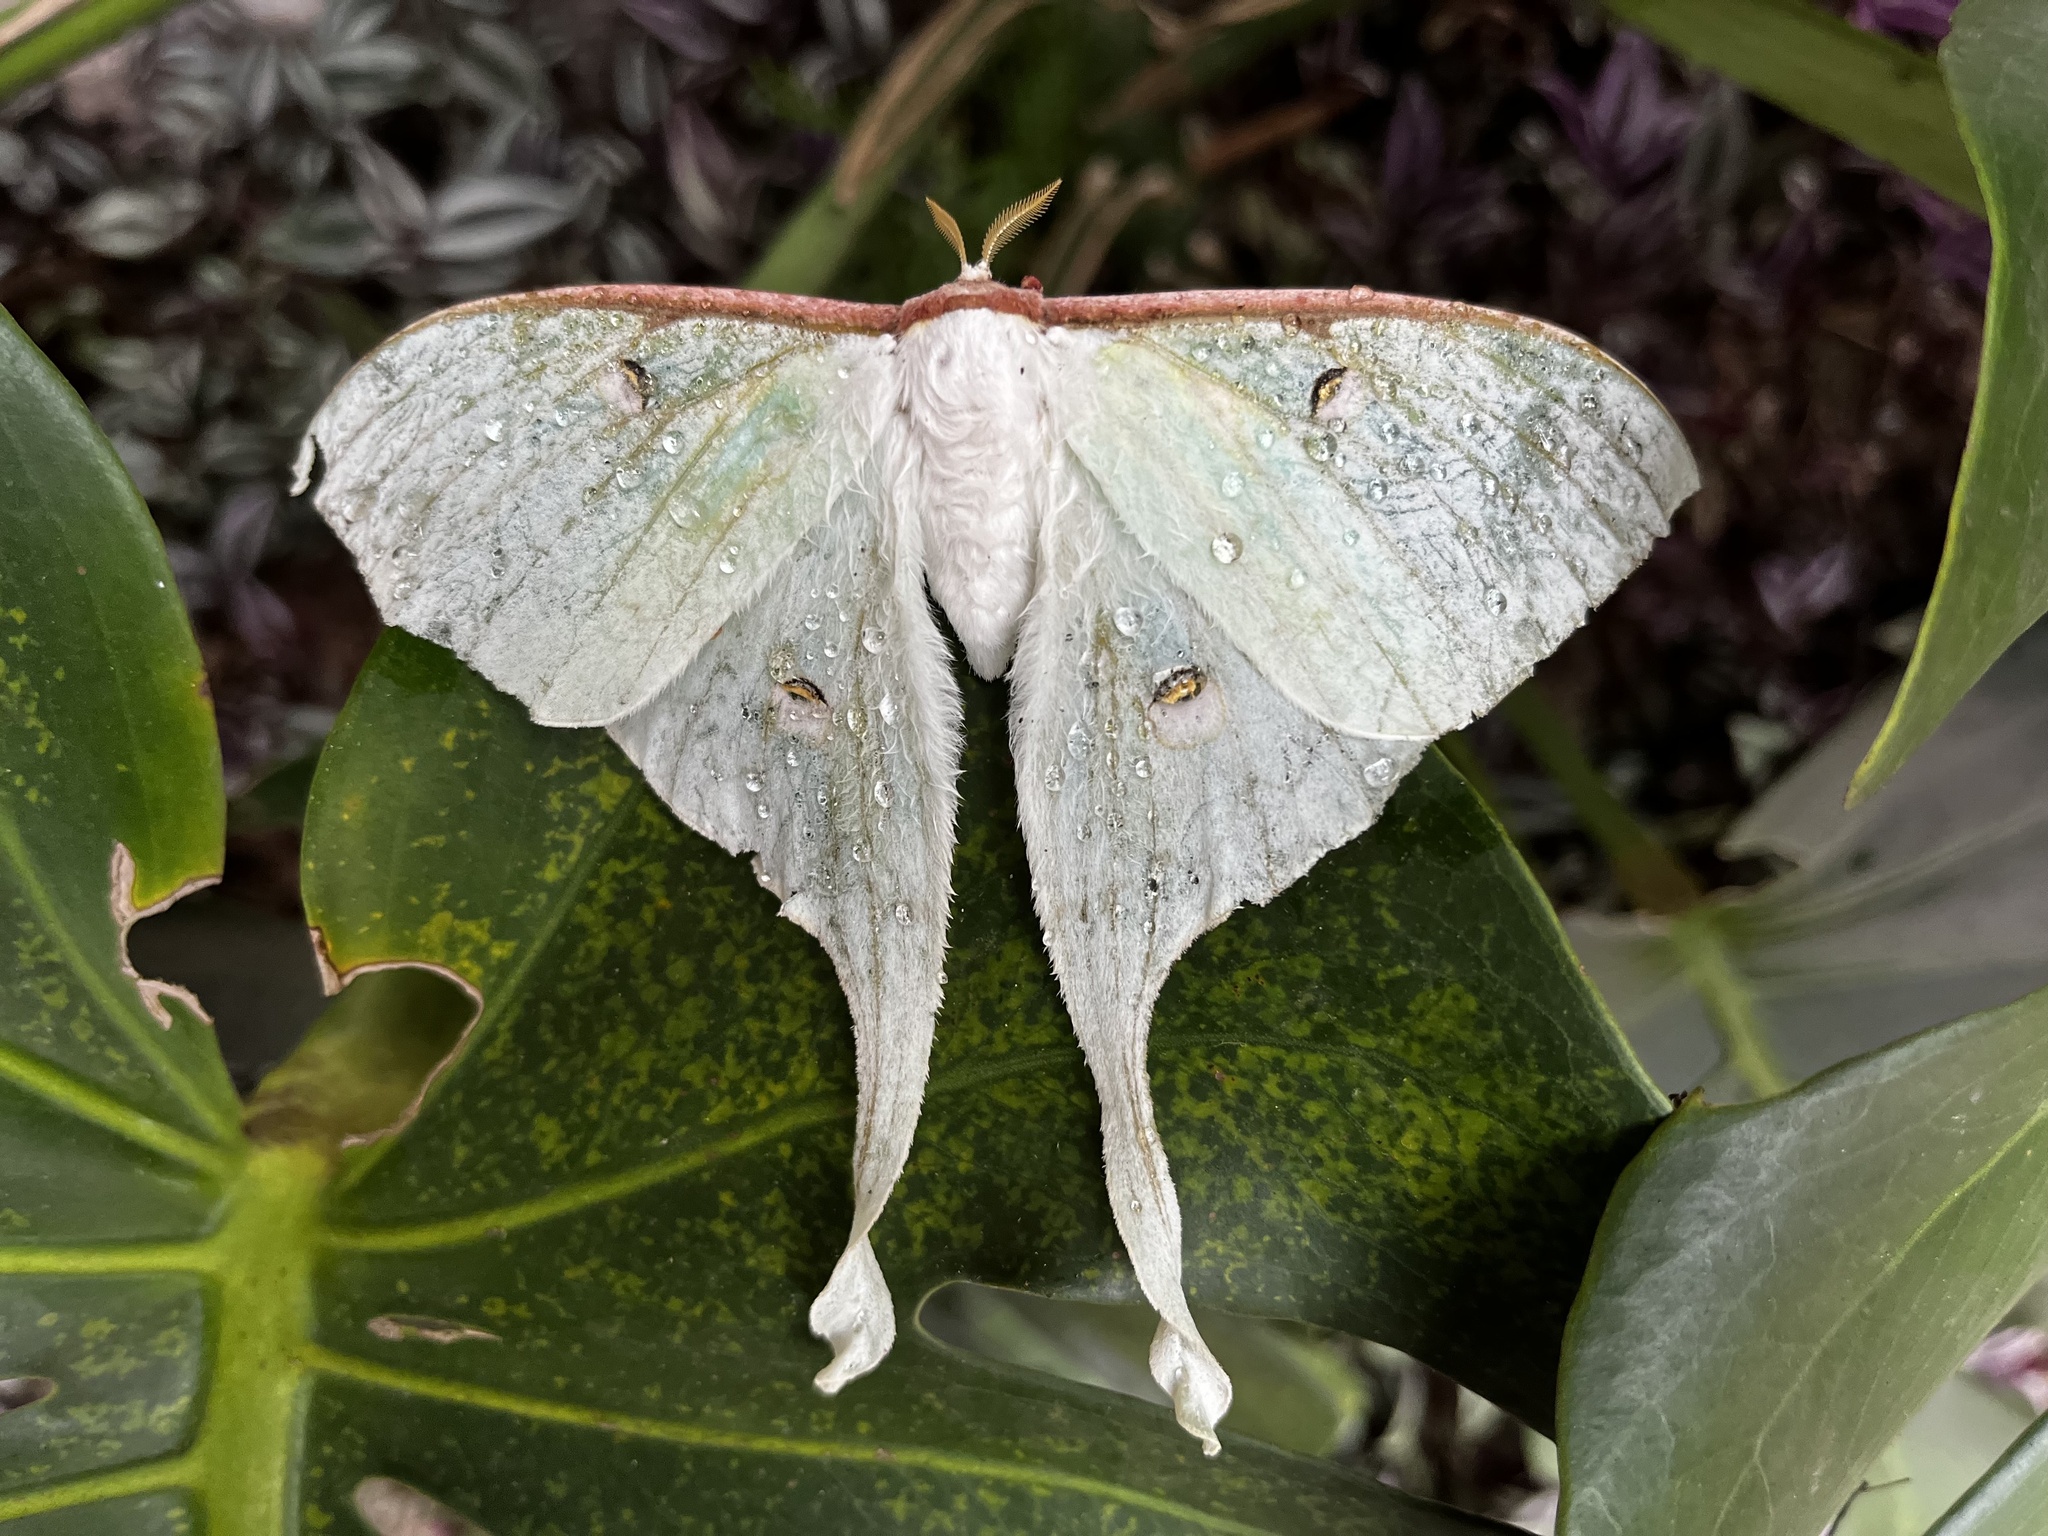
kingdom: Animalia
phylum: Arthropoda
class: Insecta
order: Lepidoptera
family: Saturniidae
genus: Actias
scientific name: Actias sinensis
